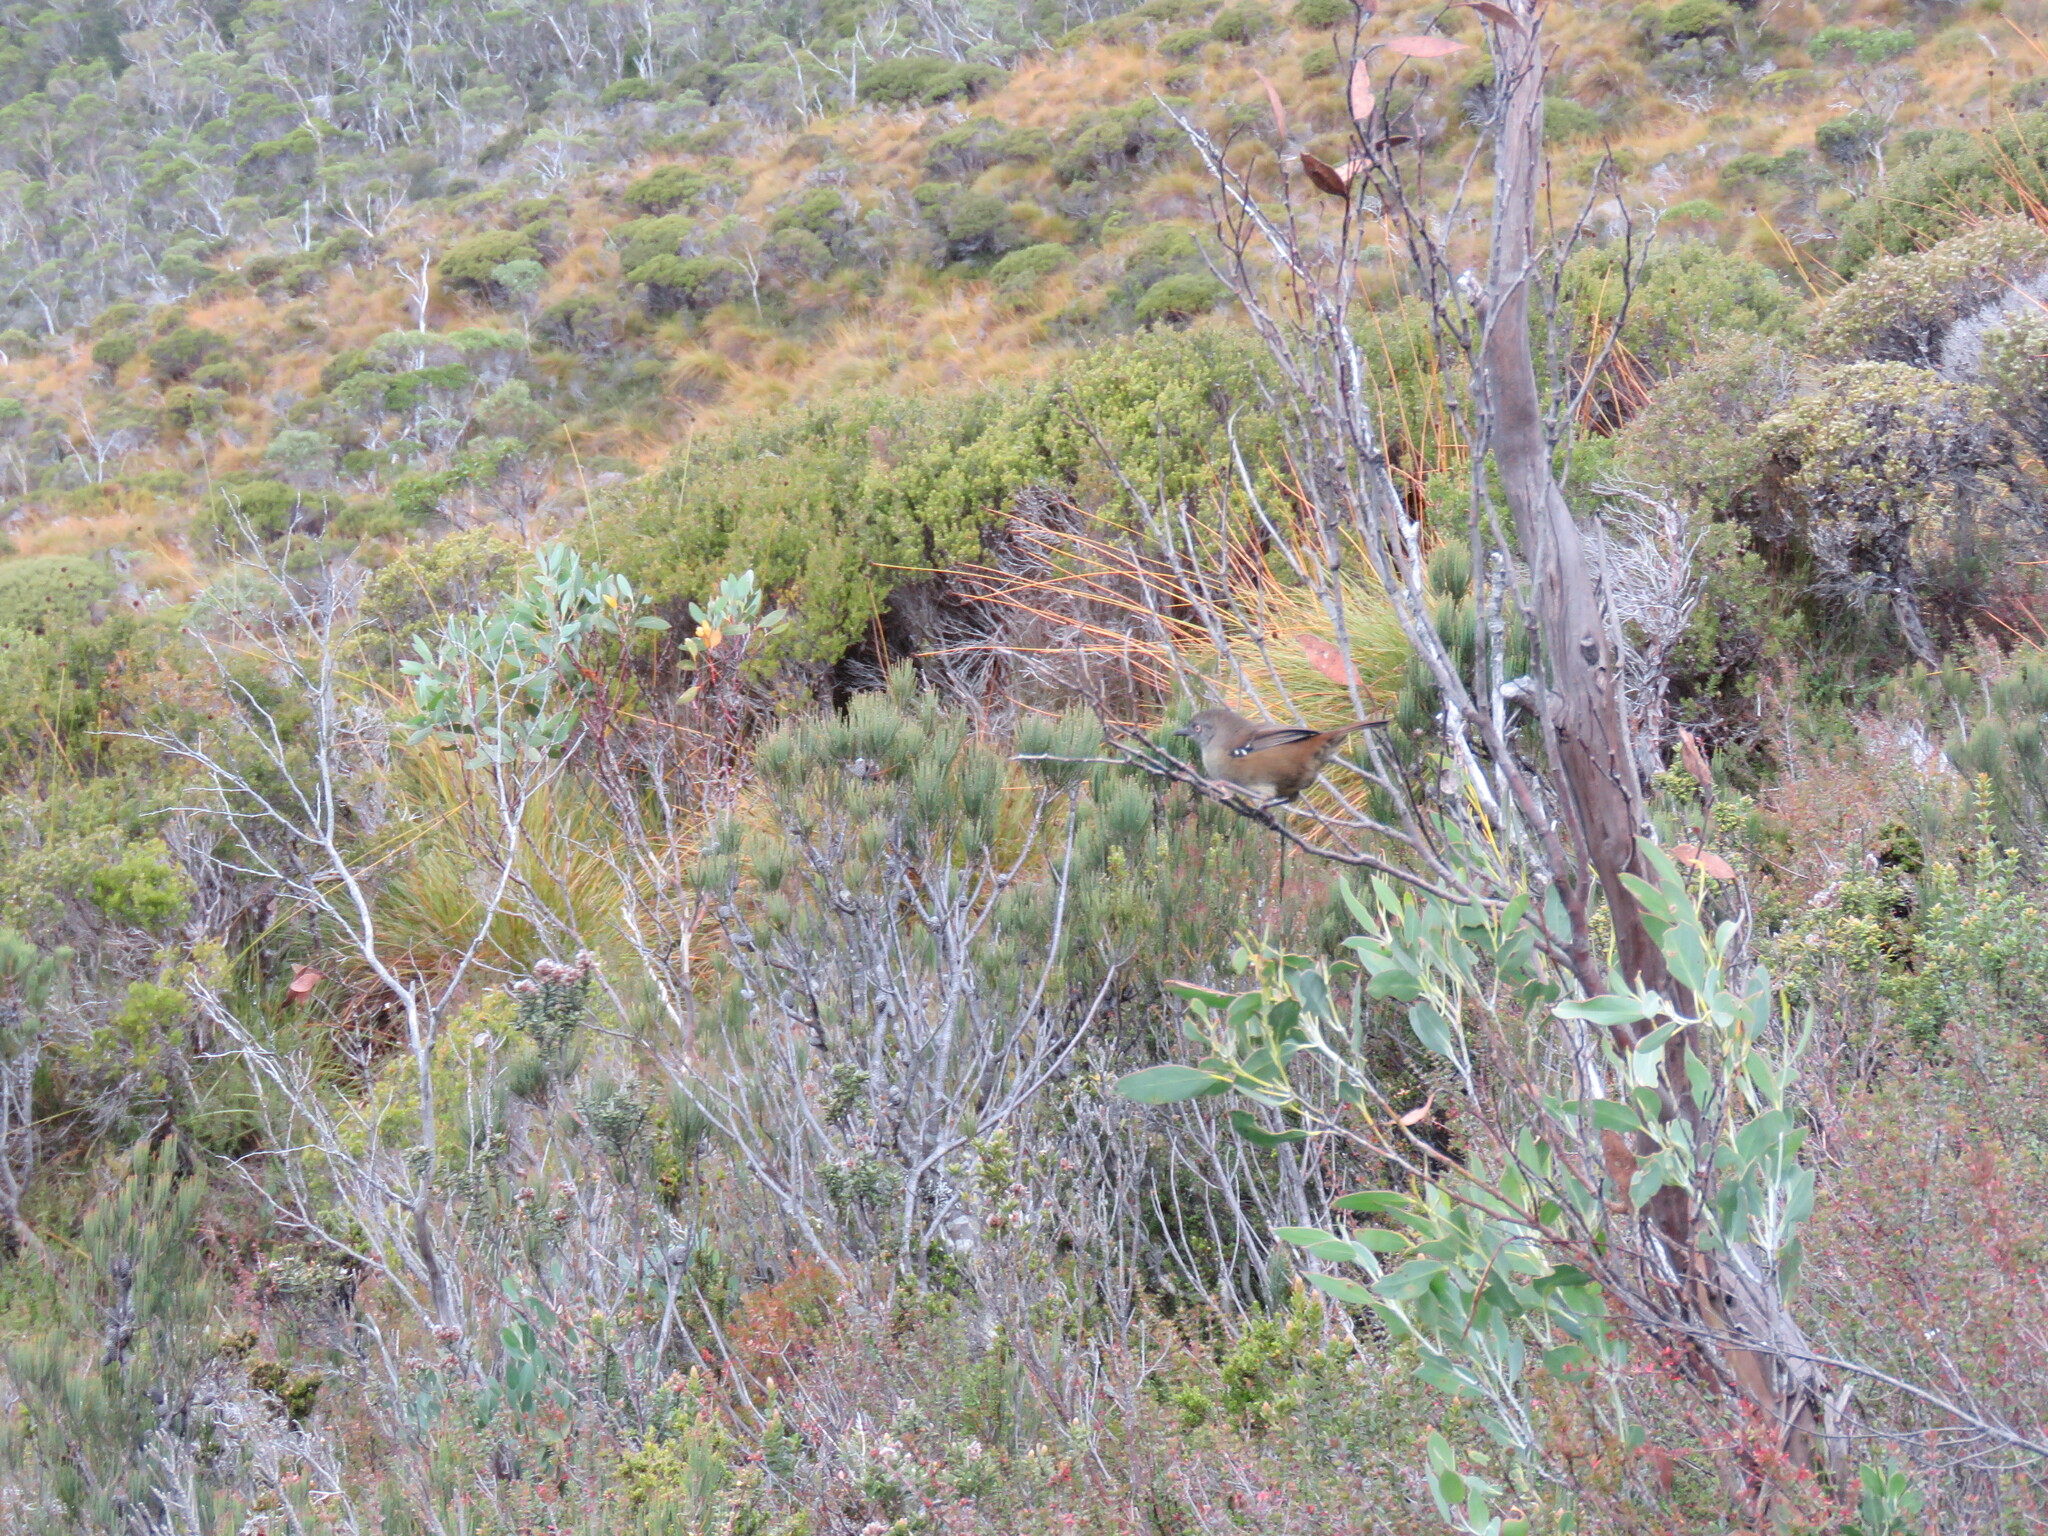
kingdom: Animalia
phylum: Chordata
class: Aves
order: Passeriformes
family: Acanthizidae
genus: Sericornis
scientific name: Sericornis humilis
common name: Tasmanian scrubwren
